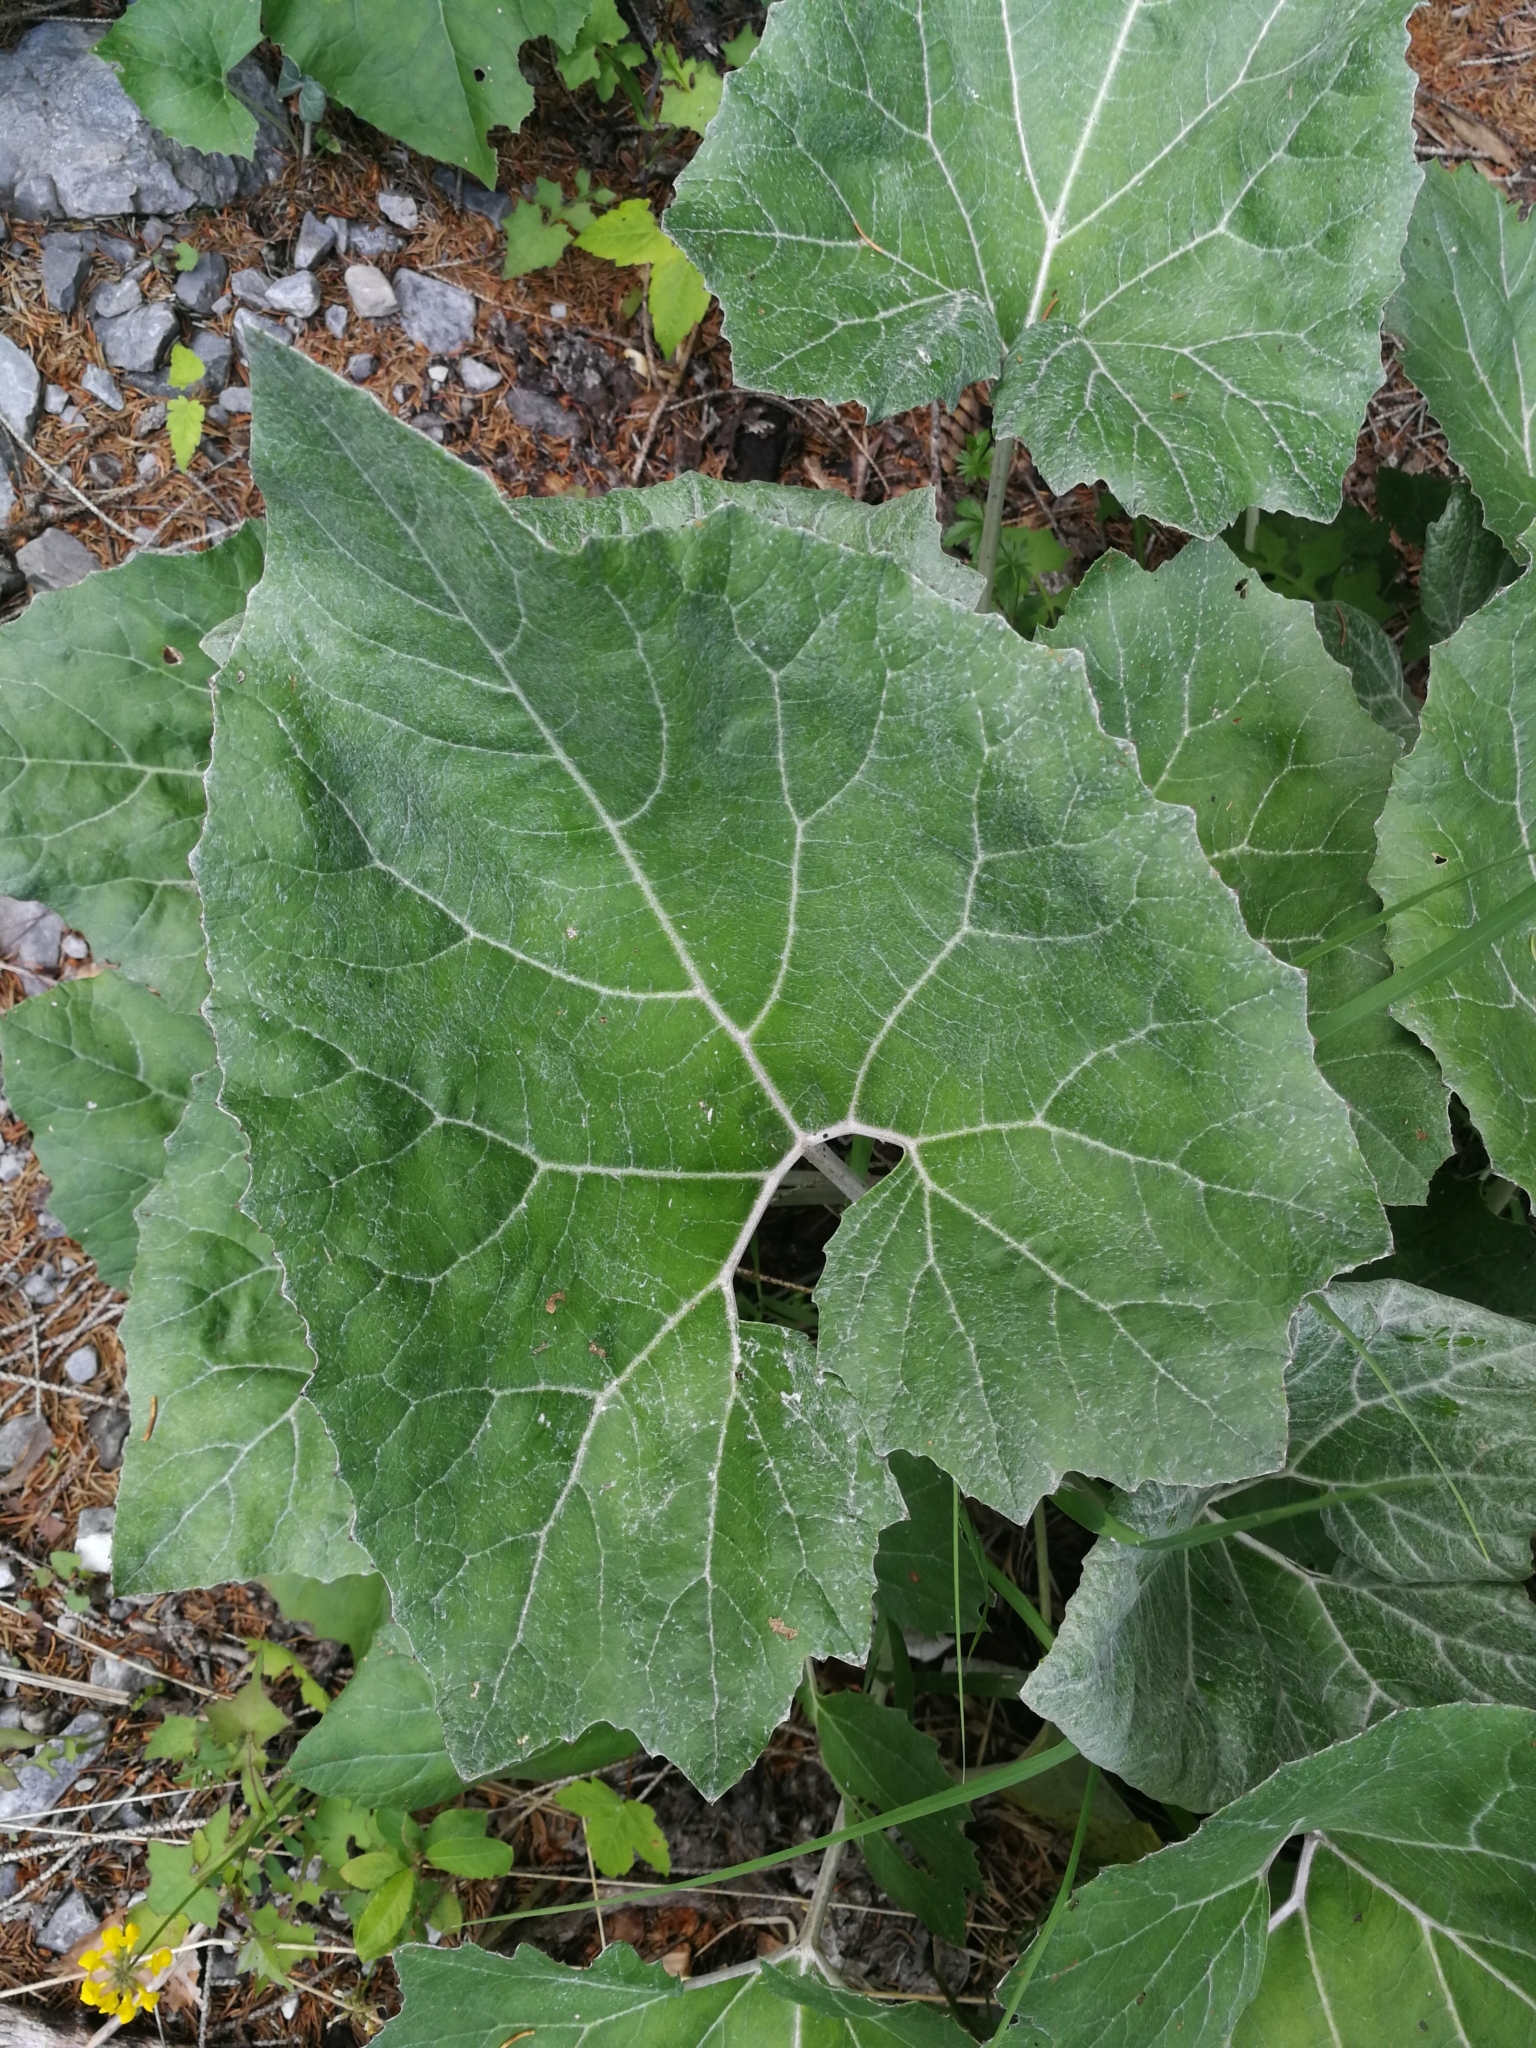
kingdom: Plantae
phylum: Tracheophyta
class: Magnoliopsida
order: Asterales
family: Asteraceae
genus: Petasites
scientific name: Petasites paradoxus
